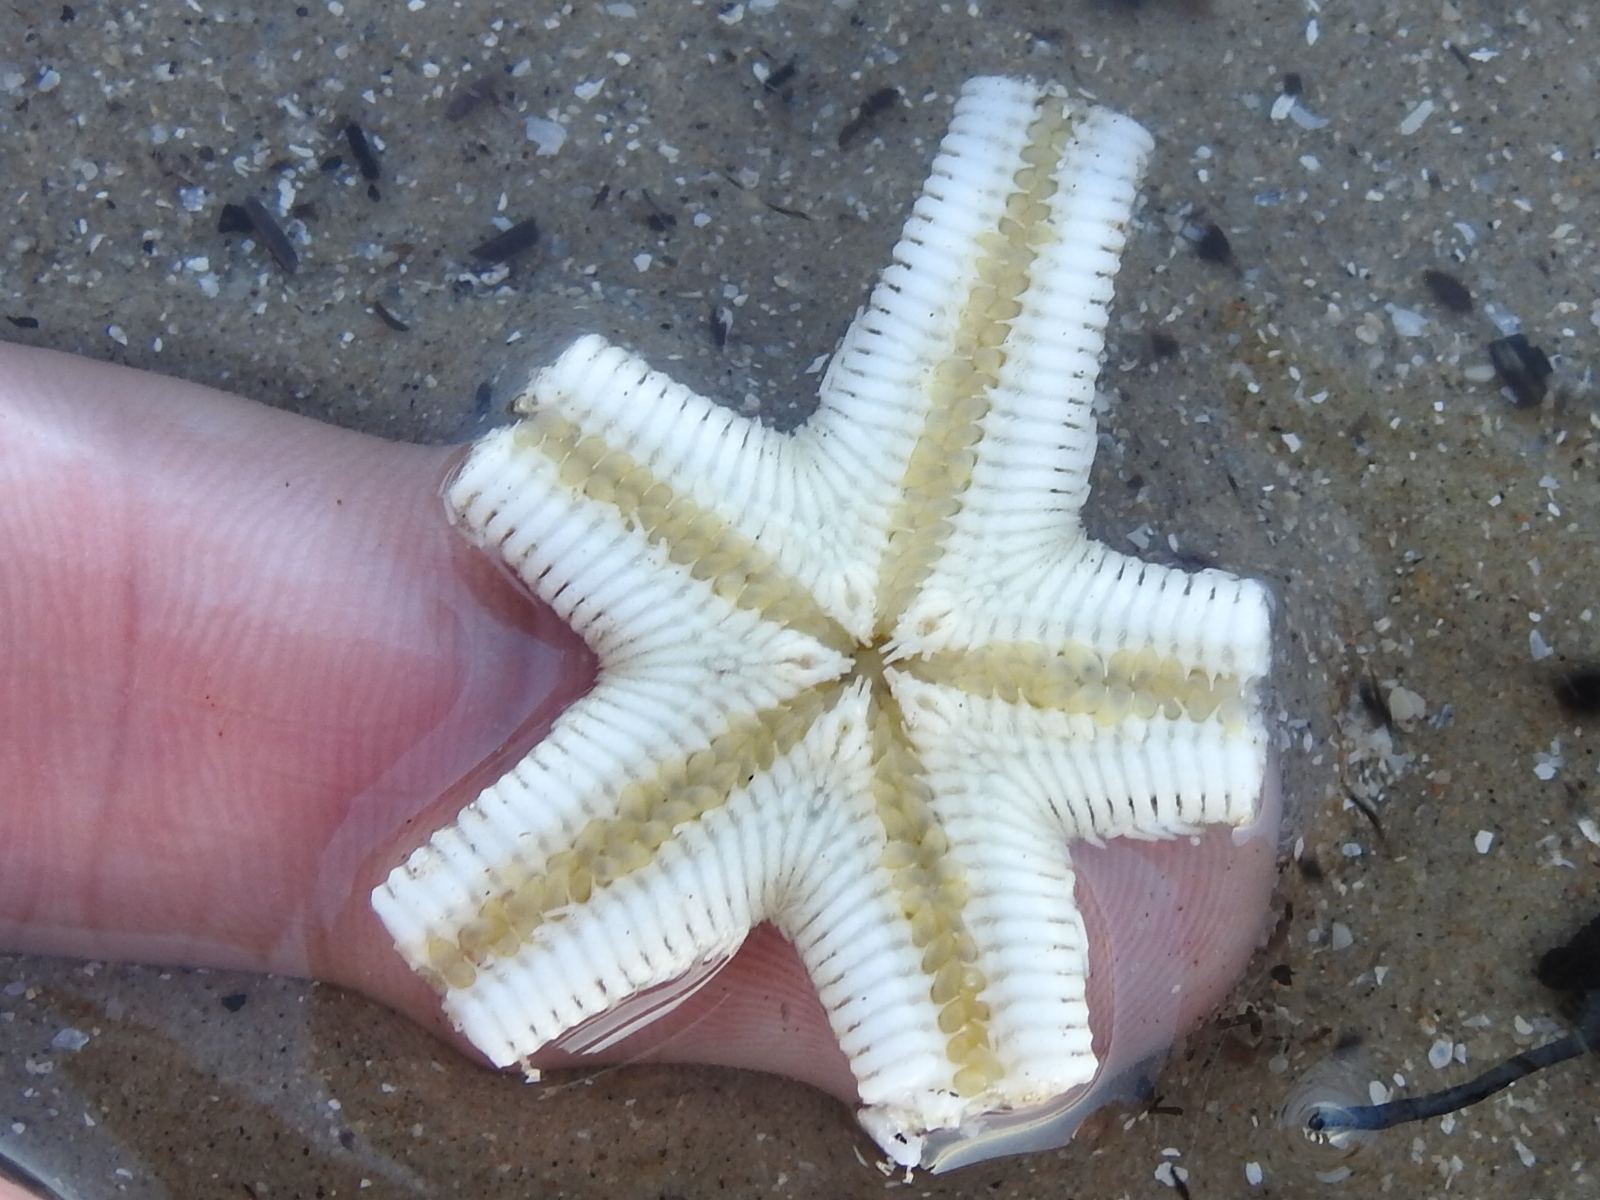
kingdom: Animalia
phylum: Echinodermata
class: Asteroidea
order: Paxillosida
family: Luidiidae
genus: Luidia
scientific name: Luidia clathrata
